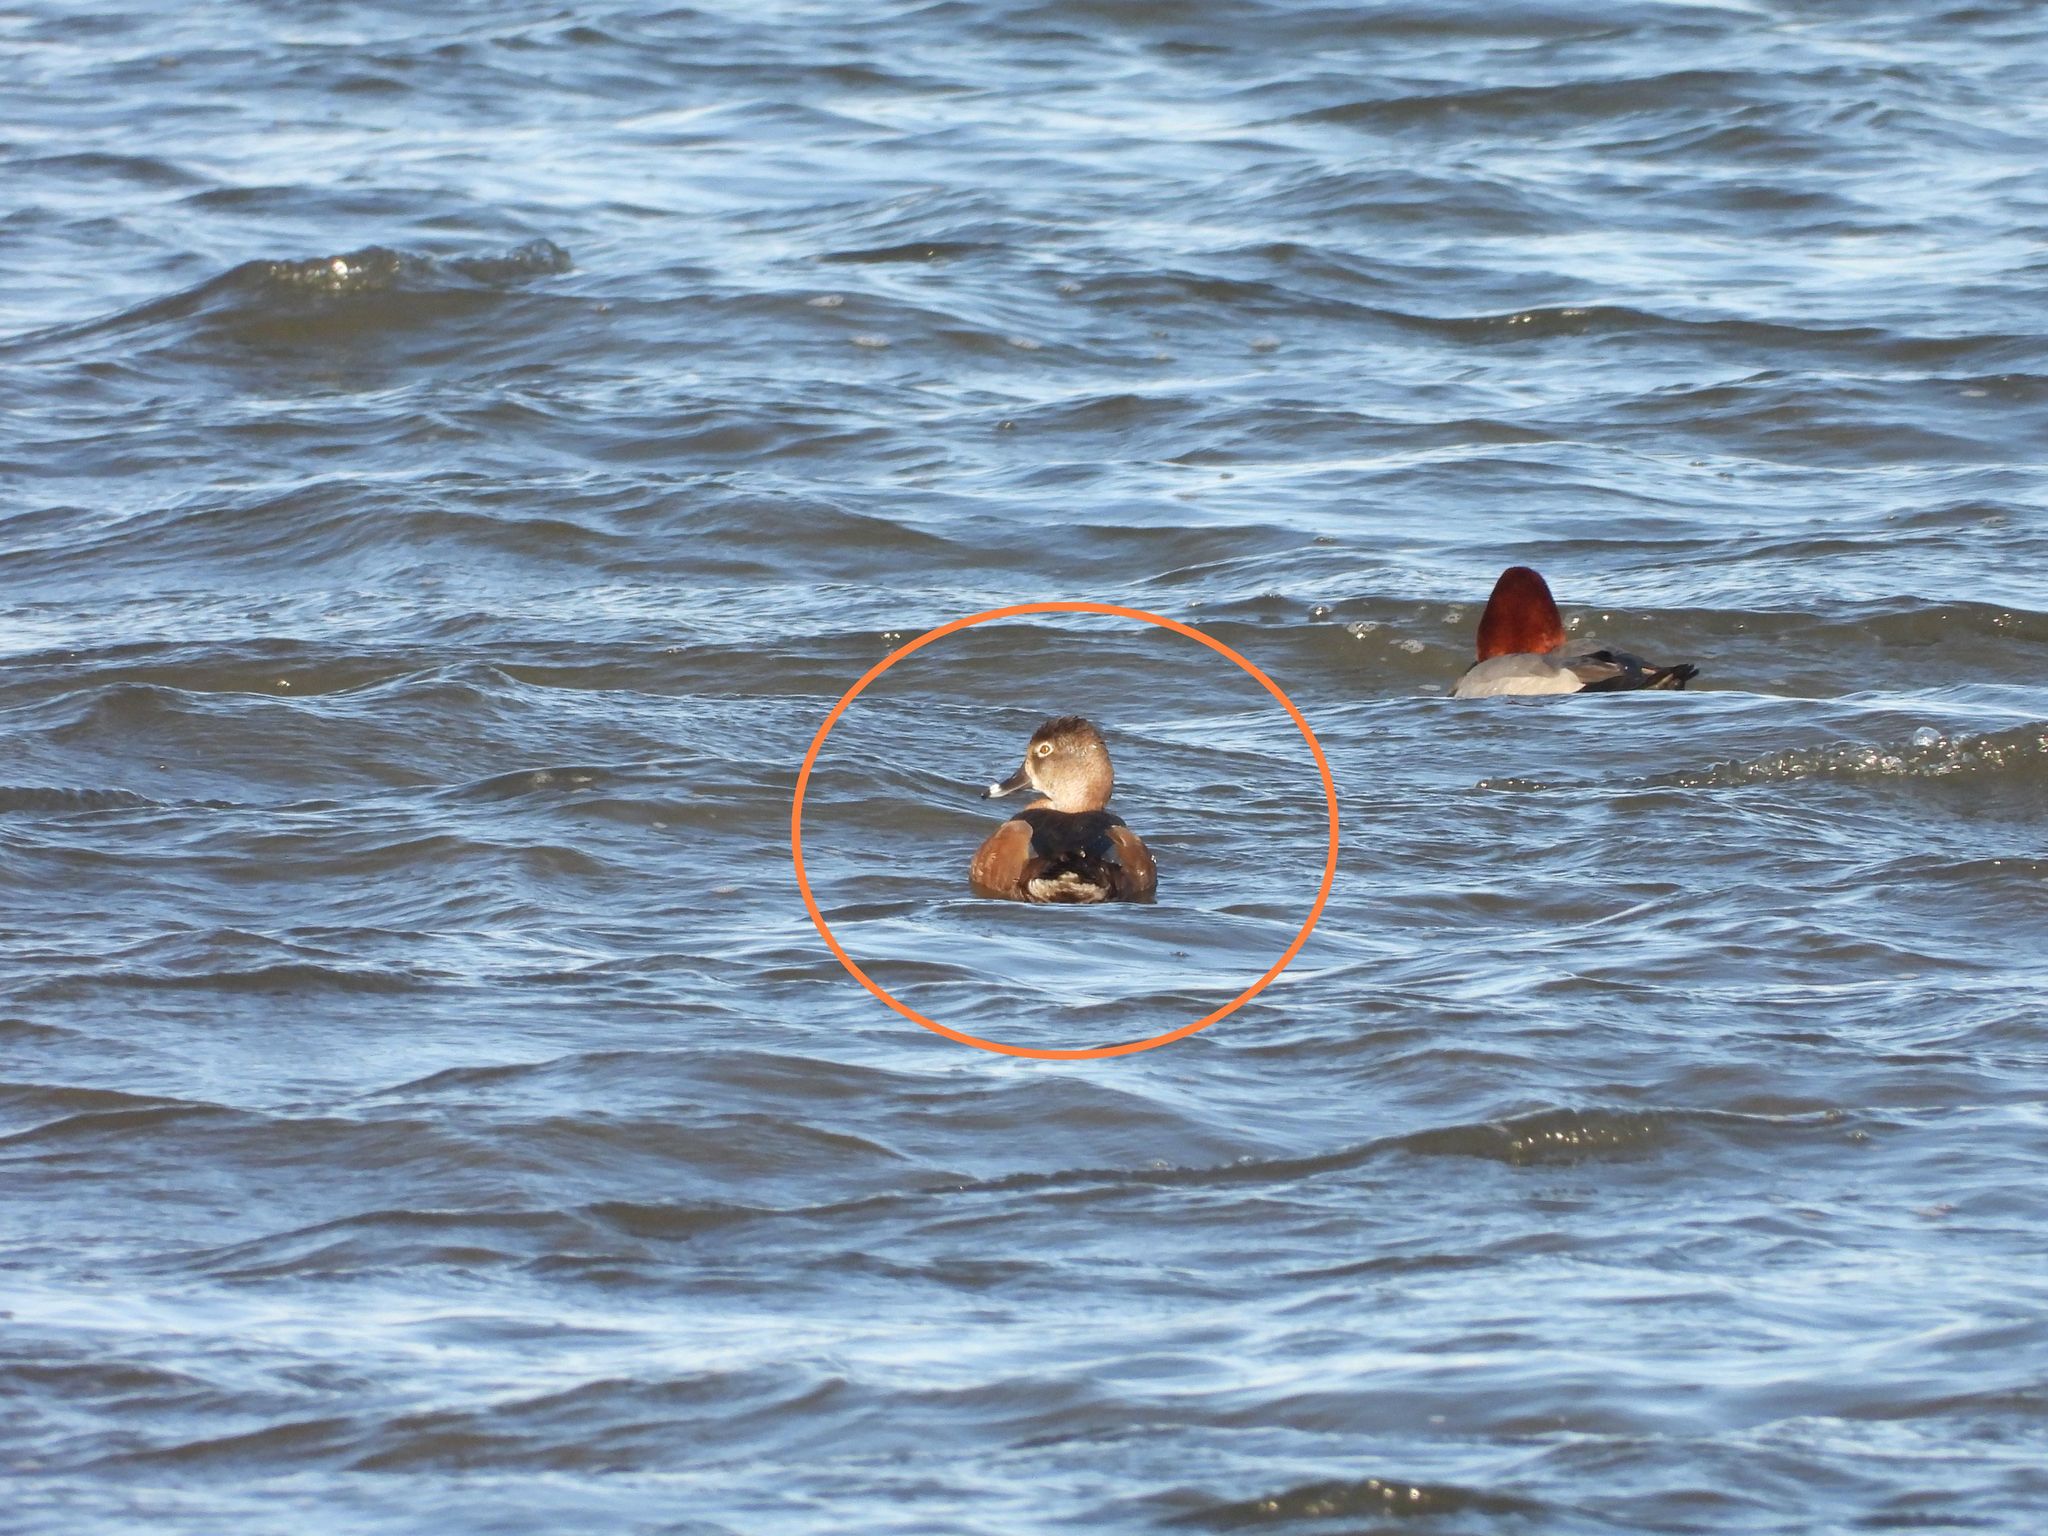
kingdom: Animalia
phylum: Chordata
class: Aves
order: Anseriformes
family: Anatidae
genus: Aythya
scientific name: Aythya collaris
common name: Ring-necked duck
